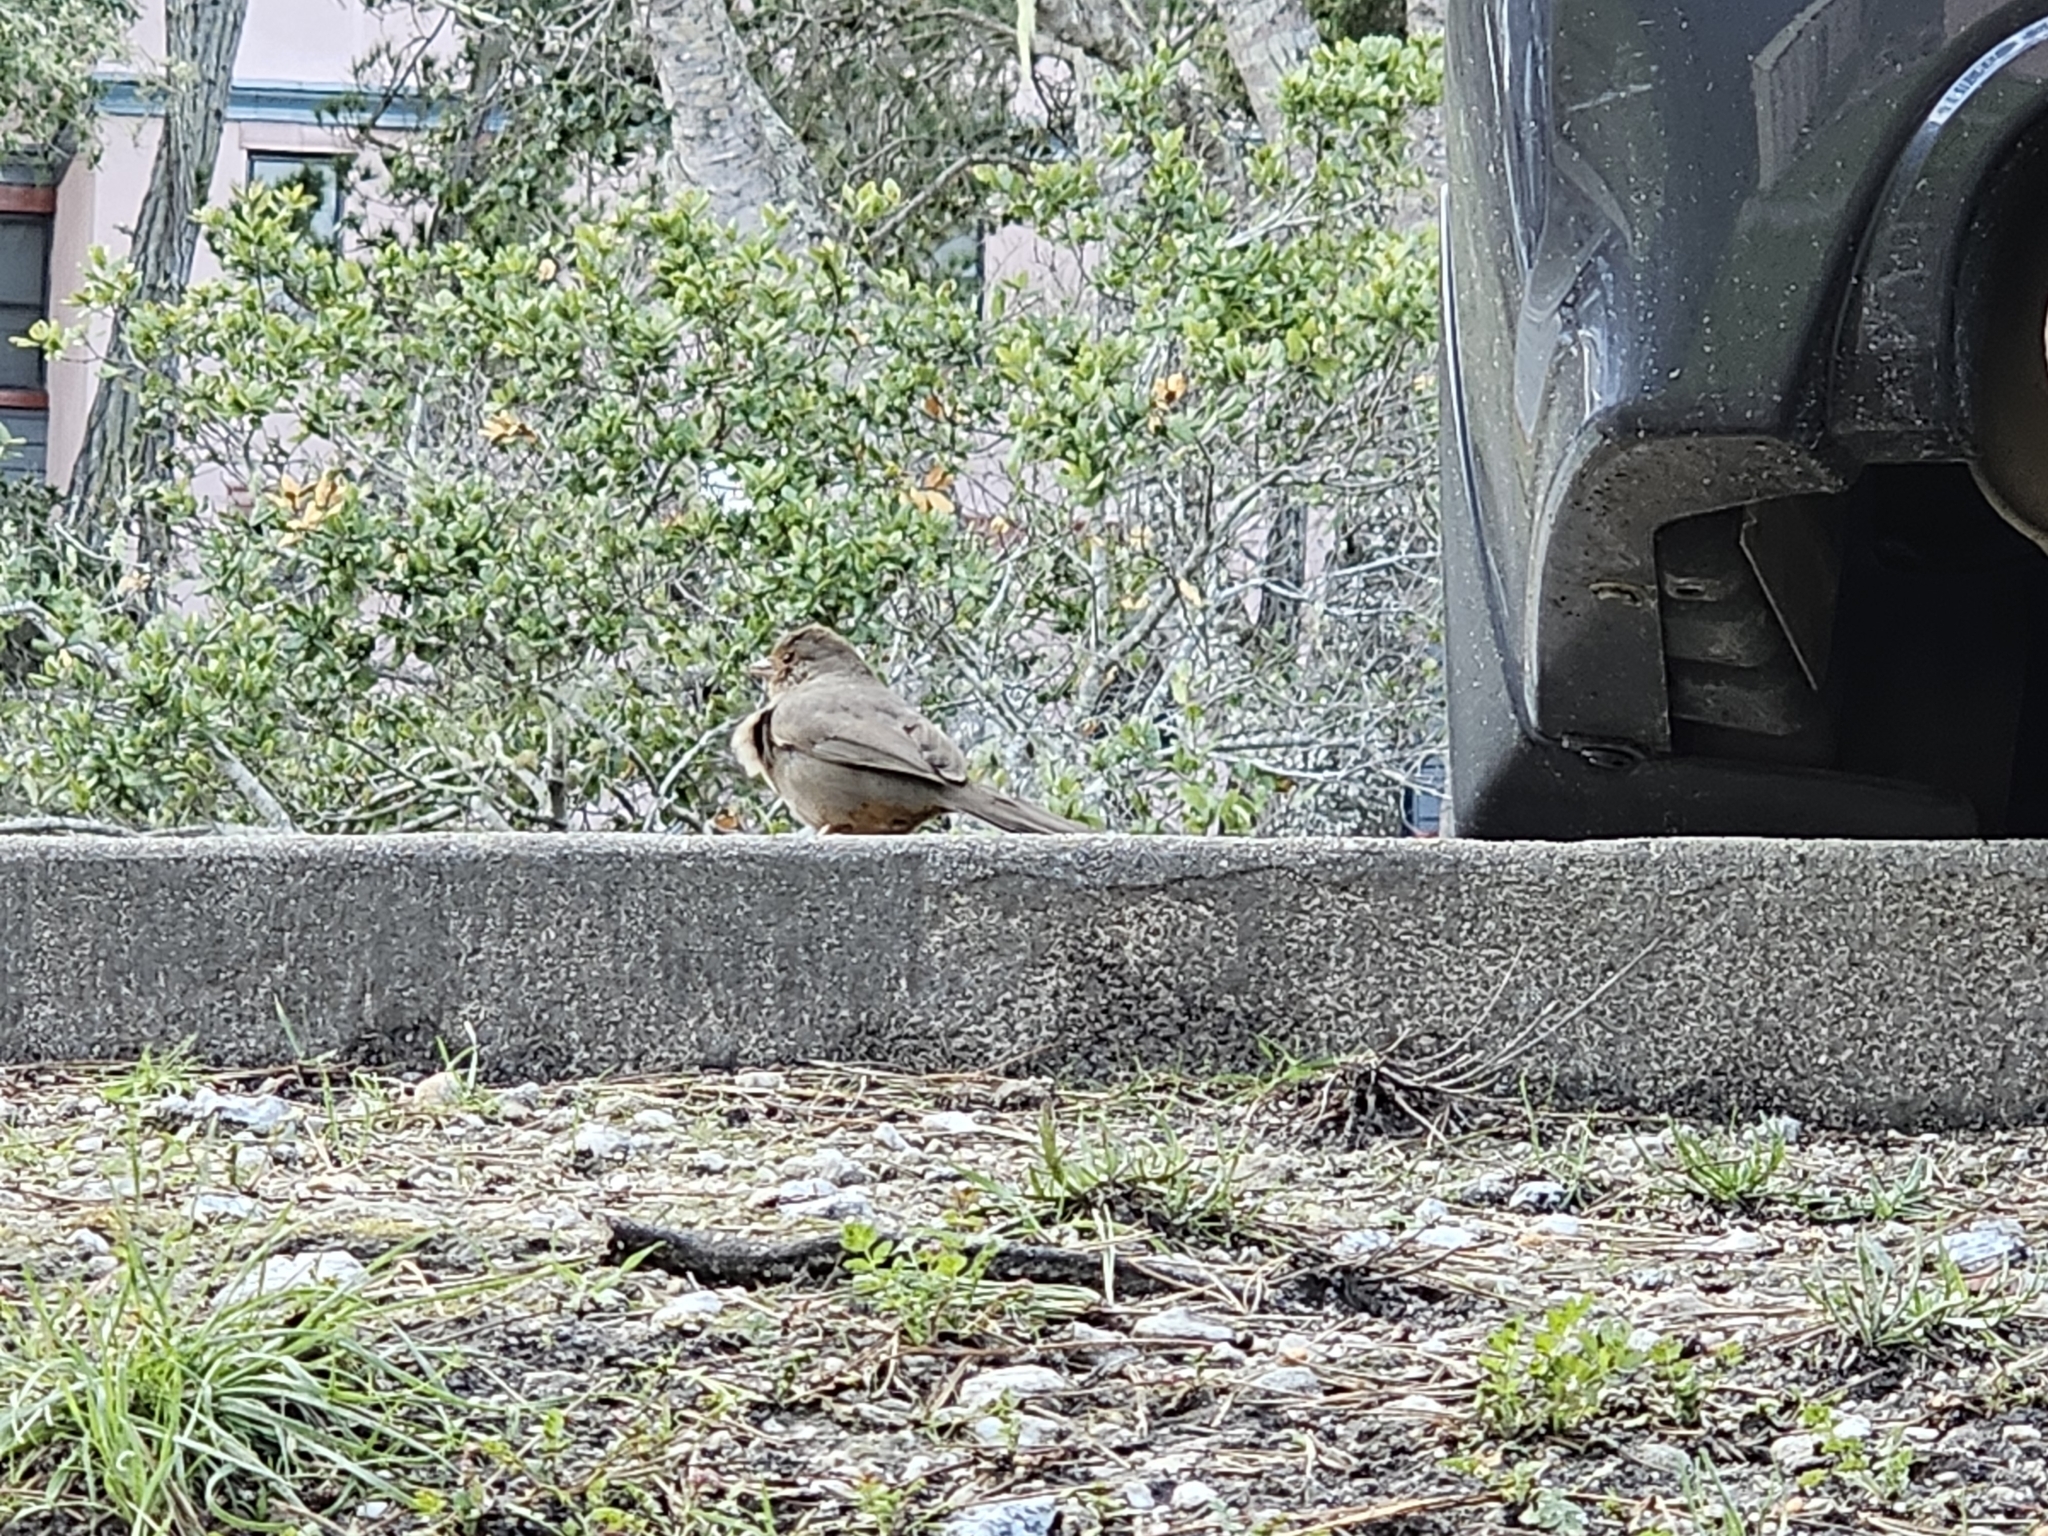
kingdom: Animalia
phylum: Chordata
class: Aves
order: Passeriformes
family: Passerellidae
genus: Melozone
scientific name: Melozone crissalis
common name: California towhee
